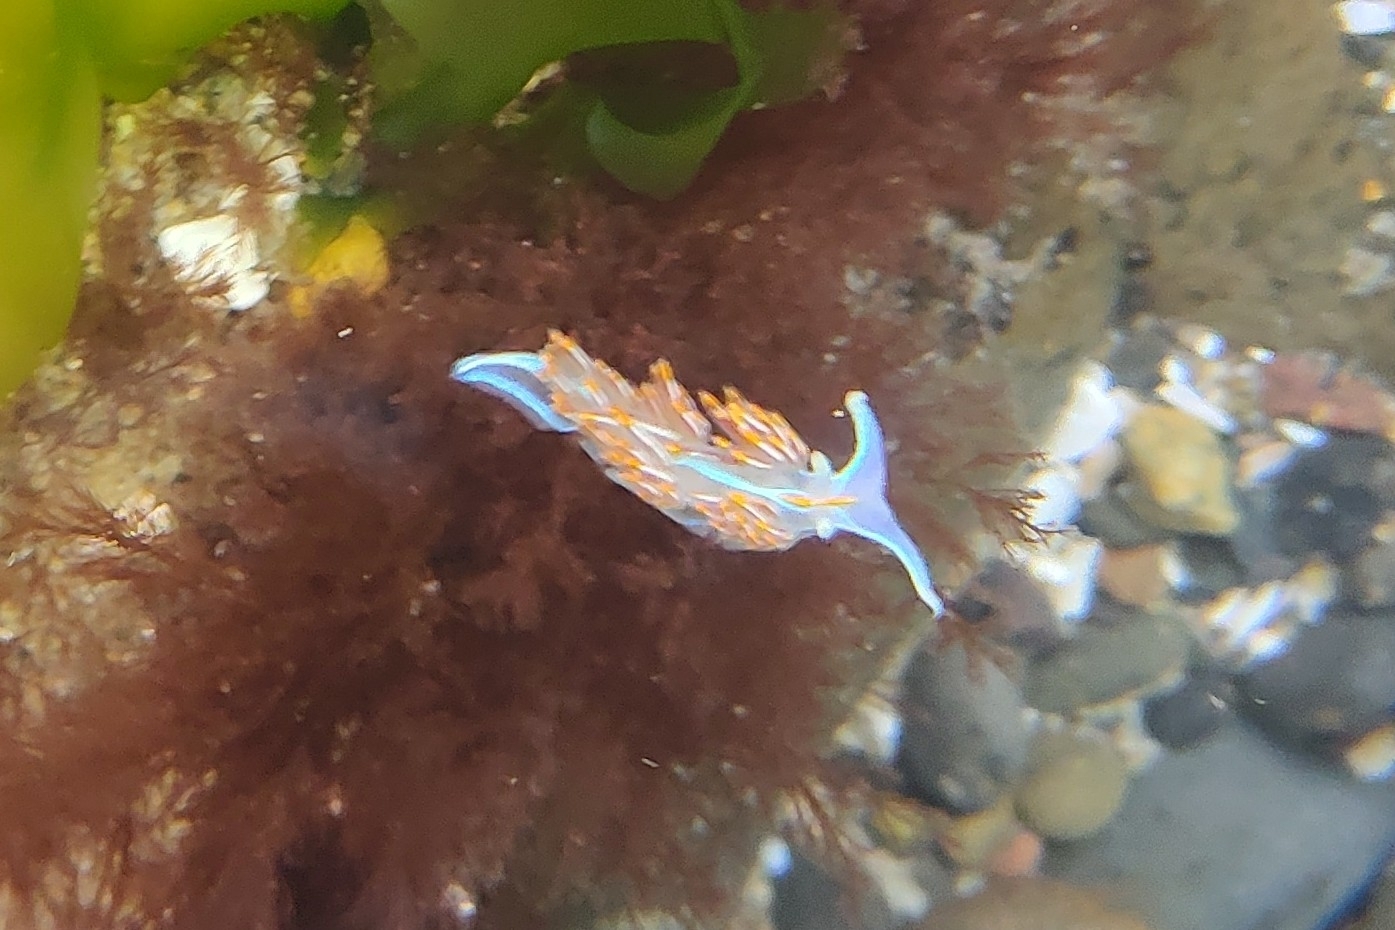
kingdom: Animalia
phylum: Mollusca
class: Gastropoda
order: Nudibranchia
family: Myrrhinidae
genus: Hermissenda
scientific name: Hermissenda crassicornis
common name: Hermissenda
